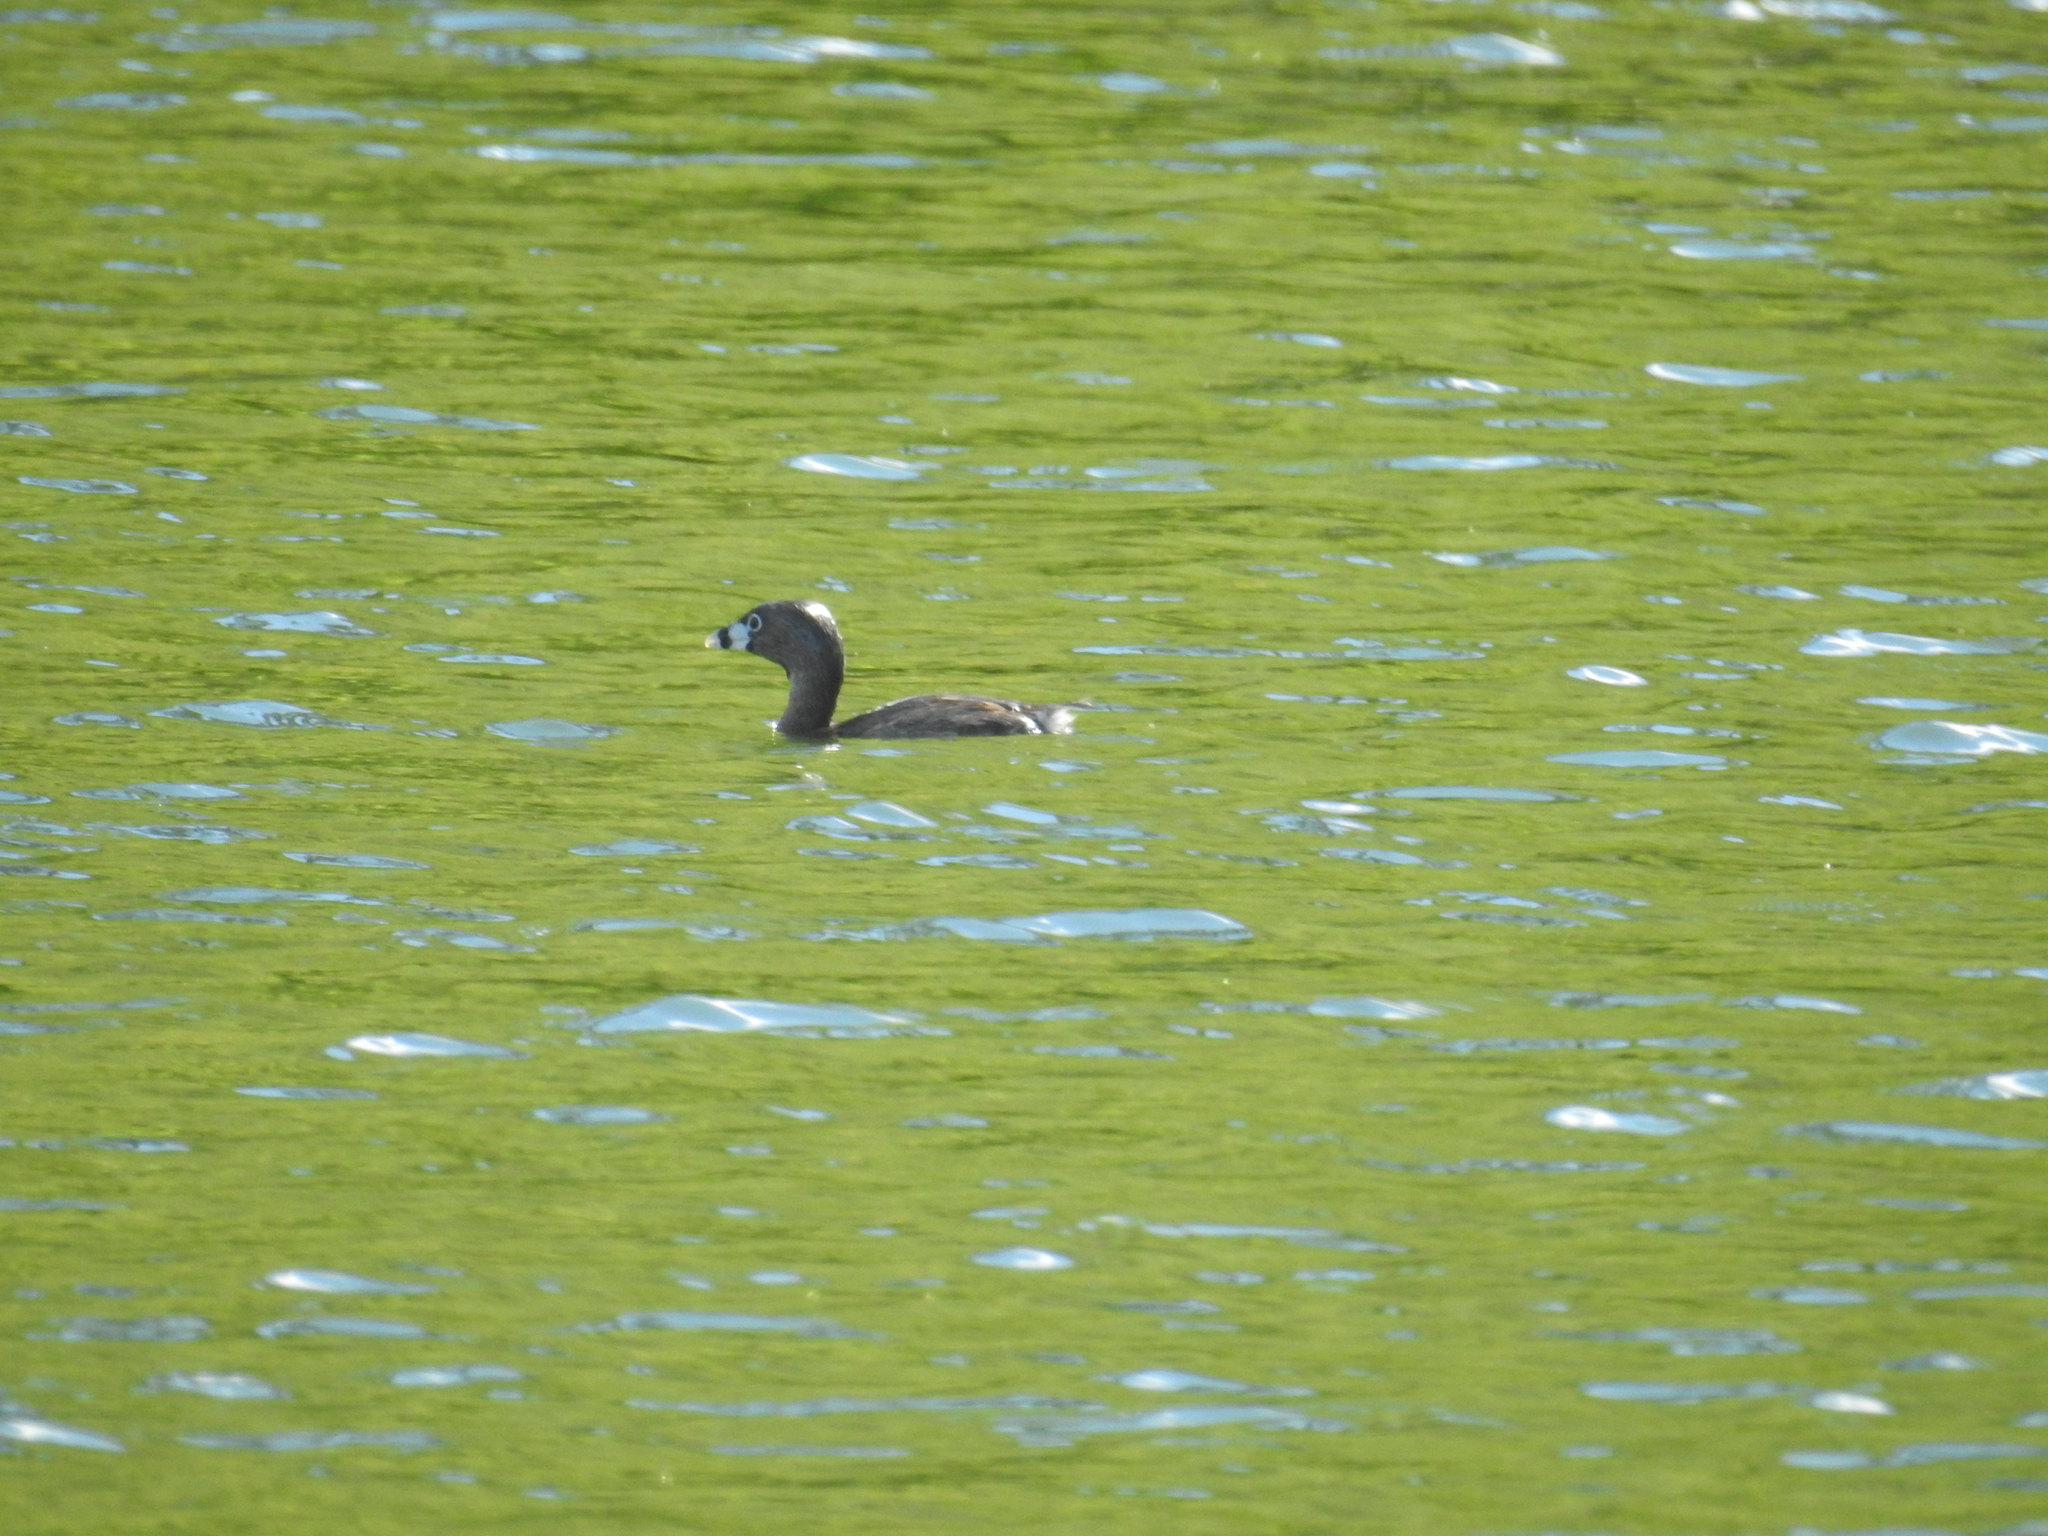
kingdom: Animalia
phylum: Chordata
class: Aves
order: Podicipediformes
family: Podicipedidae
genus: Podilymbus
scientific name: Podilymbus podiceps
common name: Pied-billed grebe
